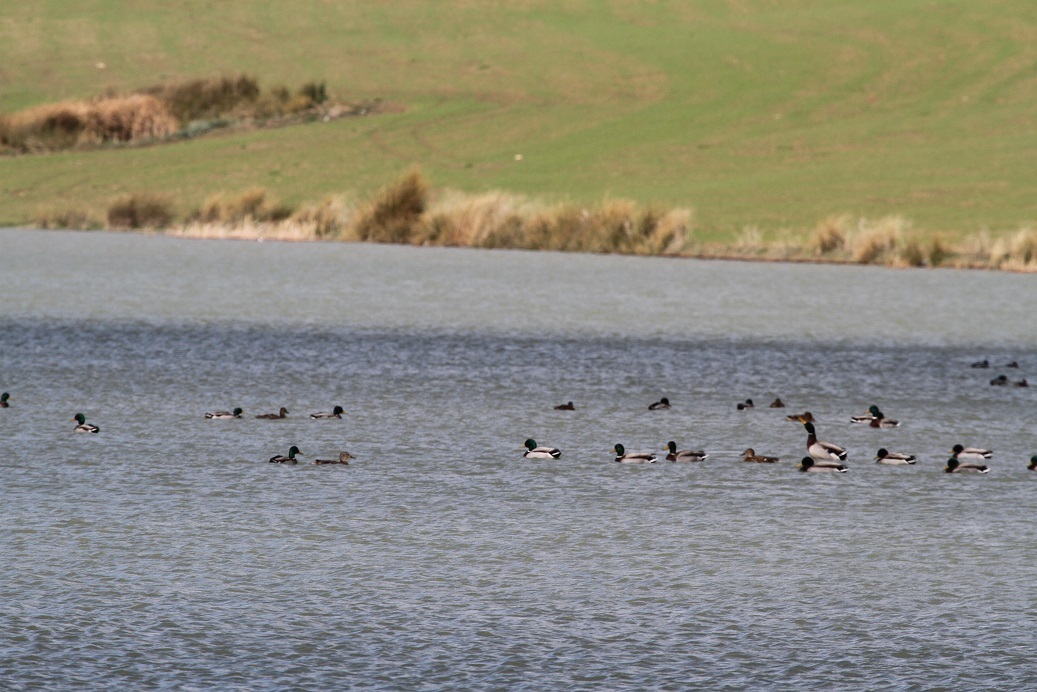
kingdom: Animalia
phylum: Chordata
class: Aves
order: Anseriformes
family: Anatidae
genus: Anas
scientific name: Anas platyrhynchos
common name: Mallard
